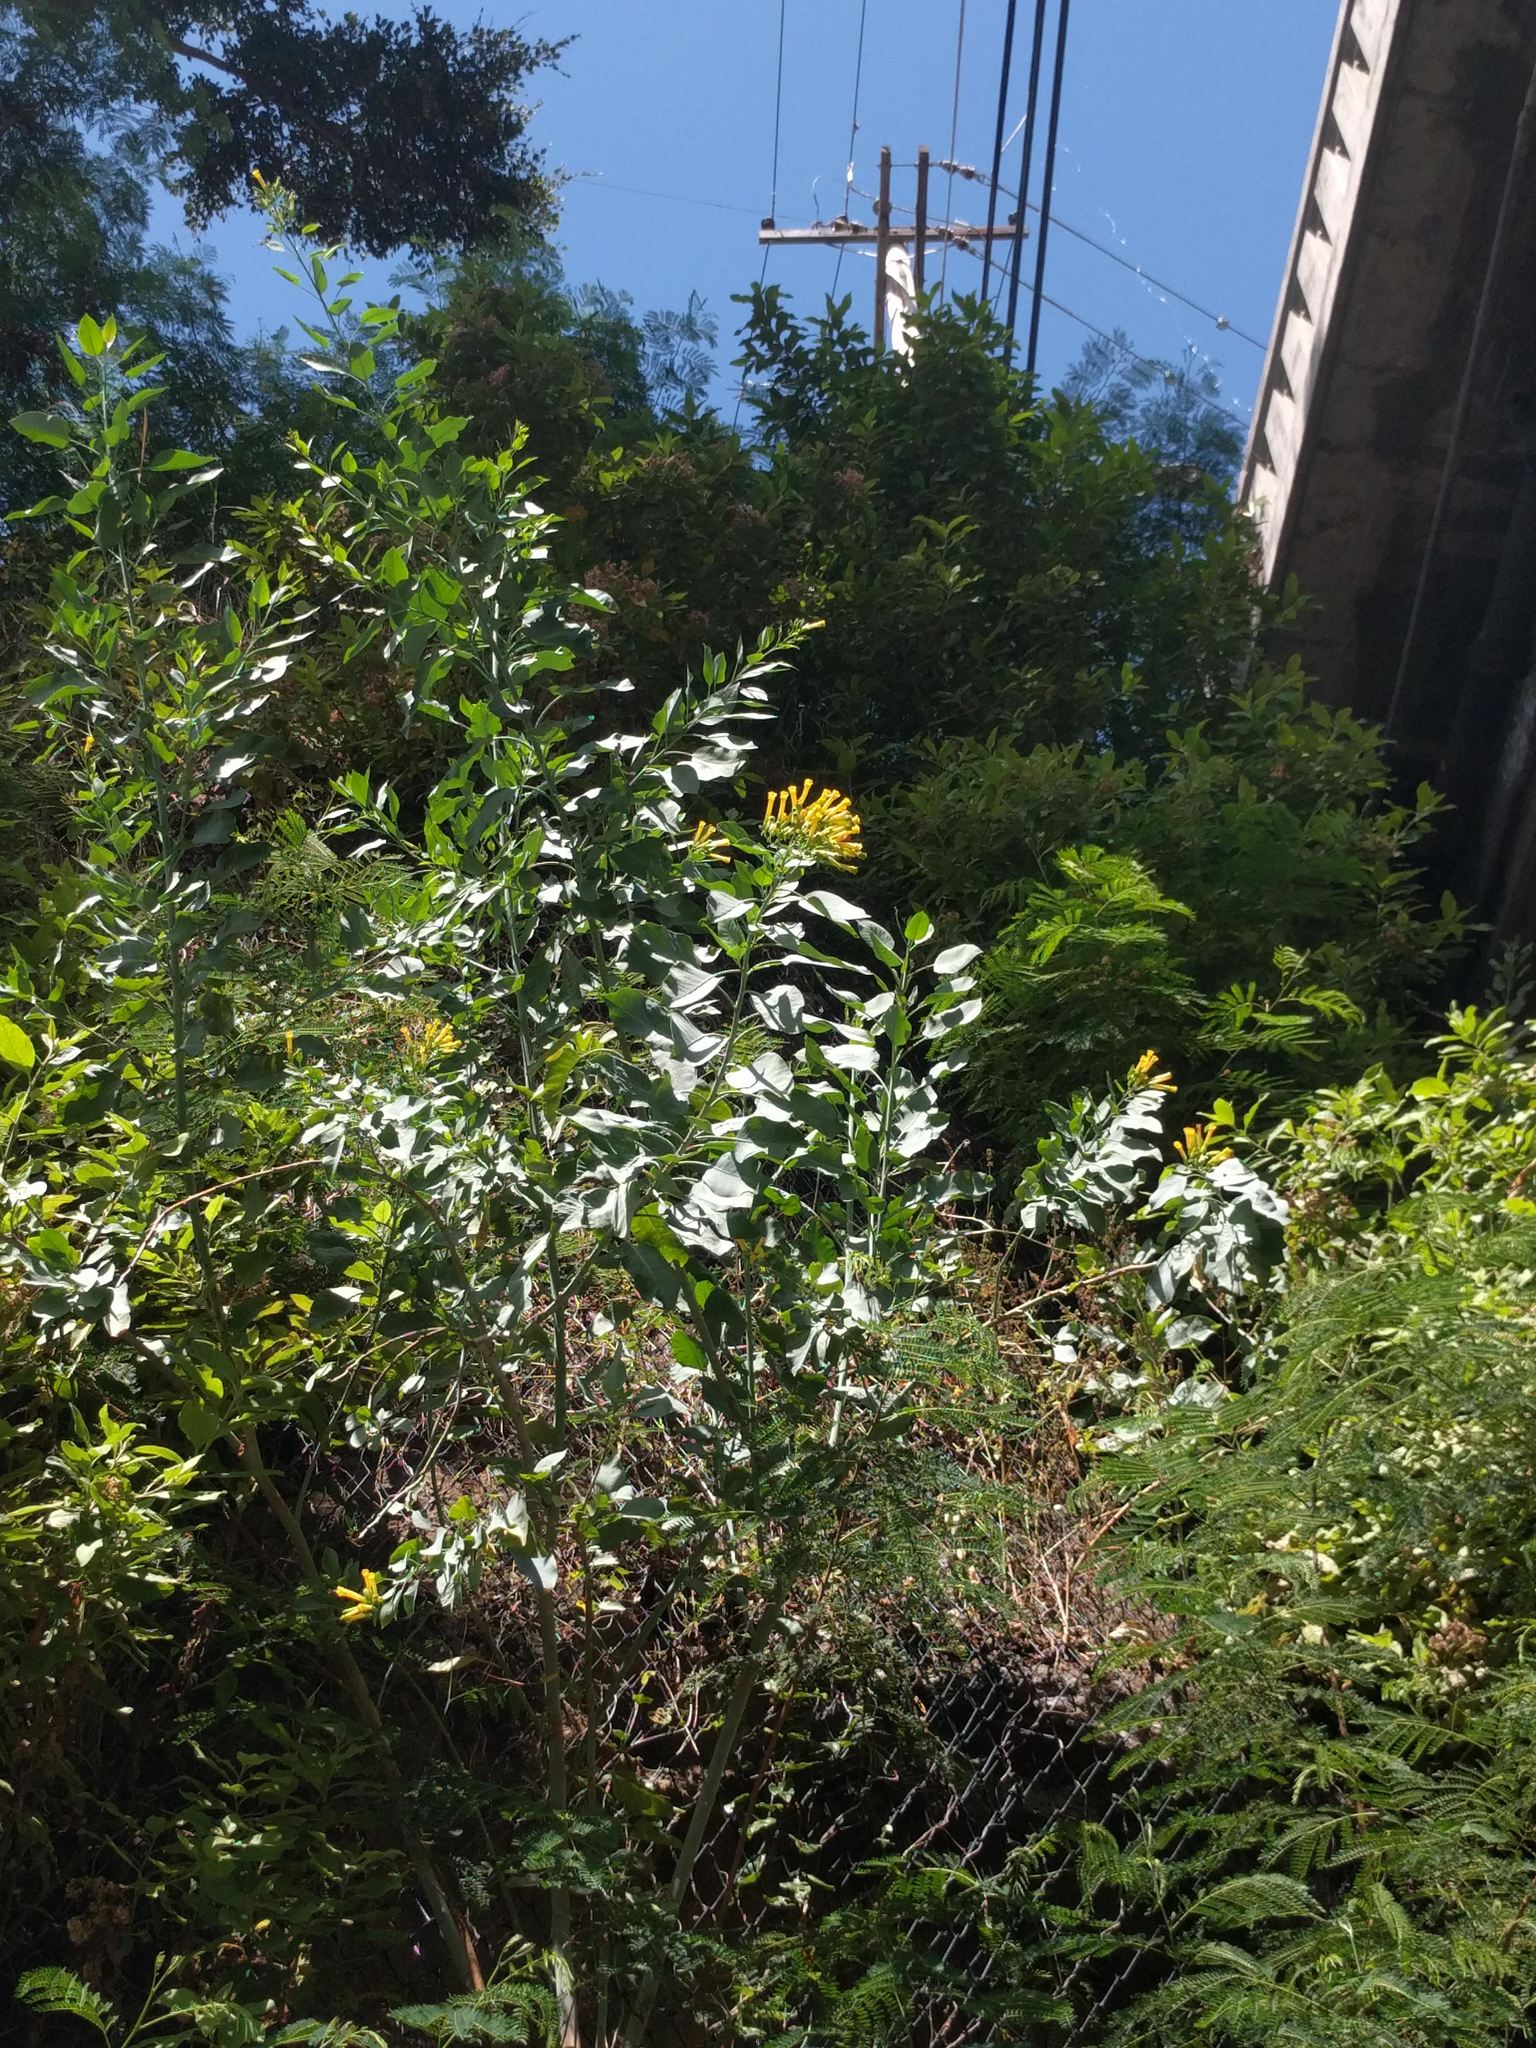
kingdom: Plantae
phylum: Tracheophyta
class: Magnoliopsida
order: Solanales
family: Solanaceae
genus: Nicotiana
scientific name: Nicotiana glauca
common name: Tree tobacco
